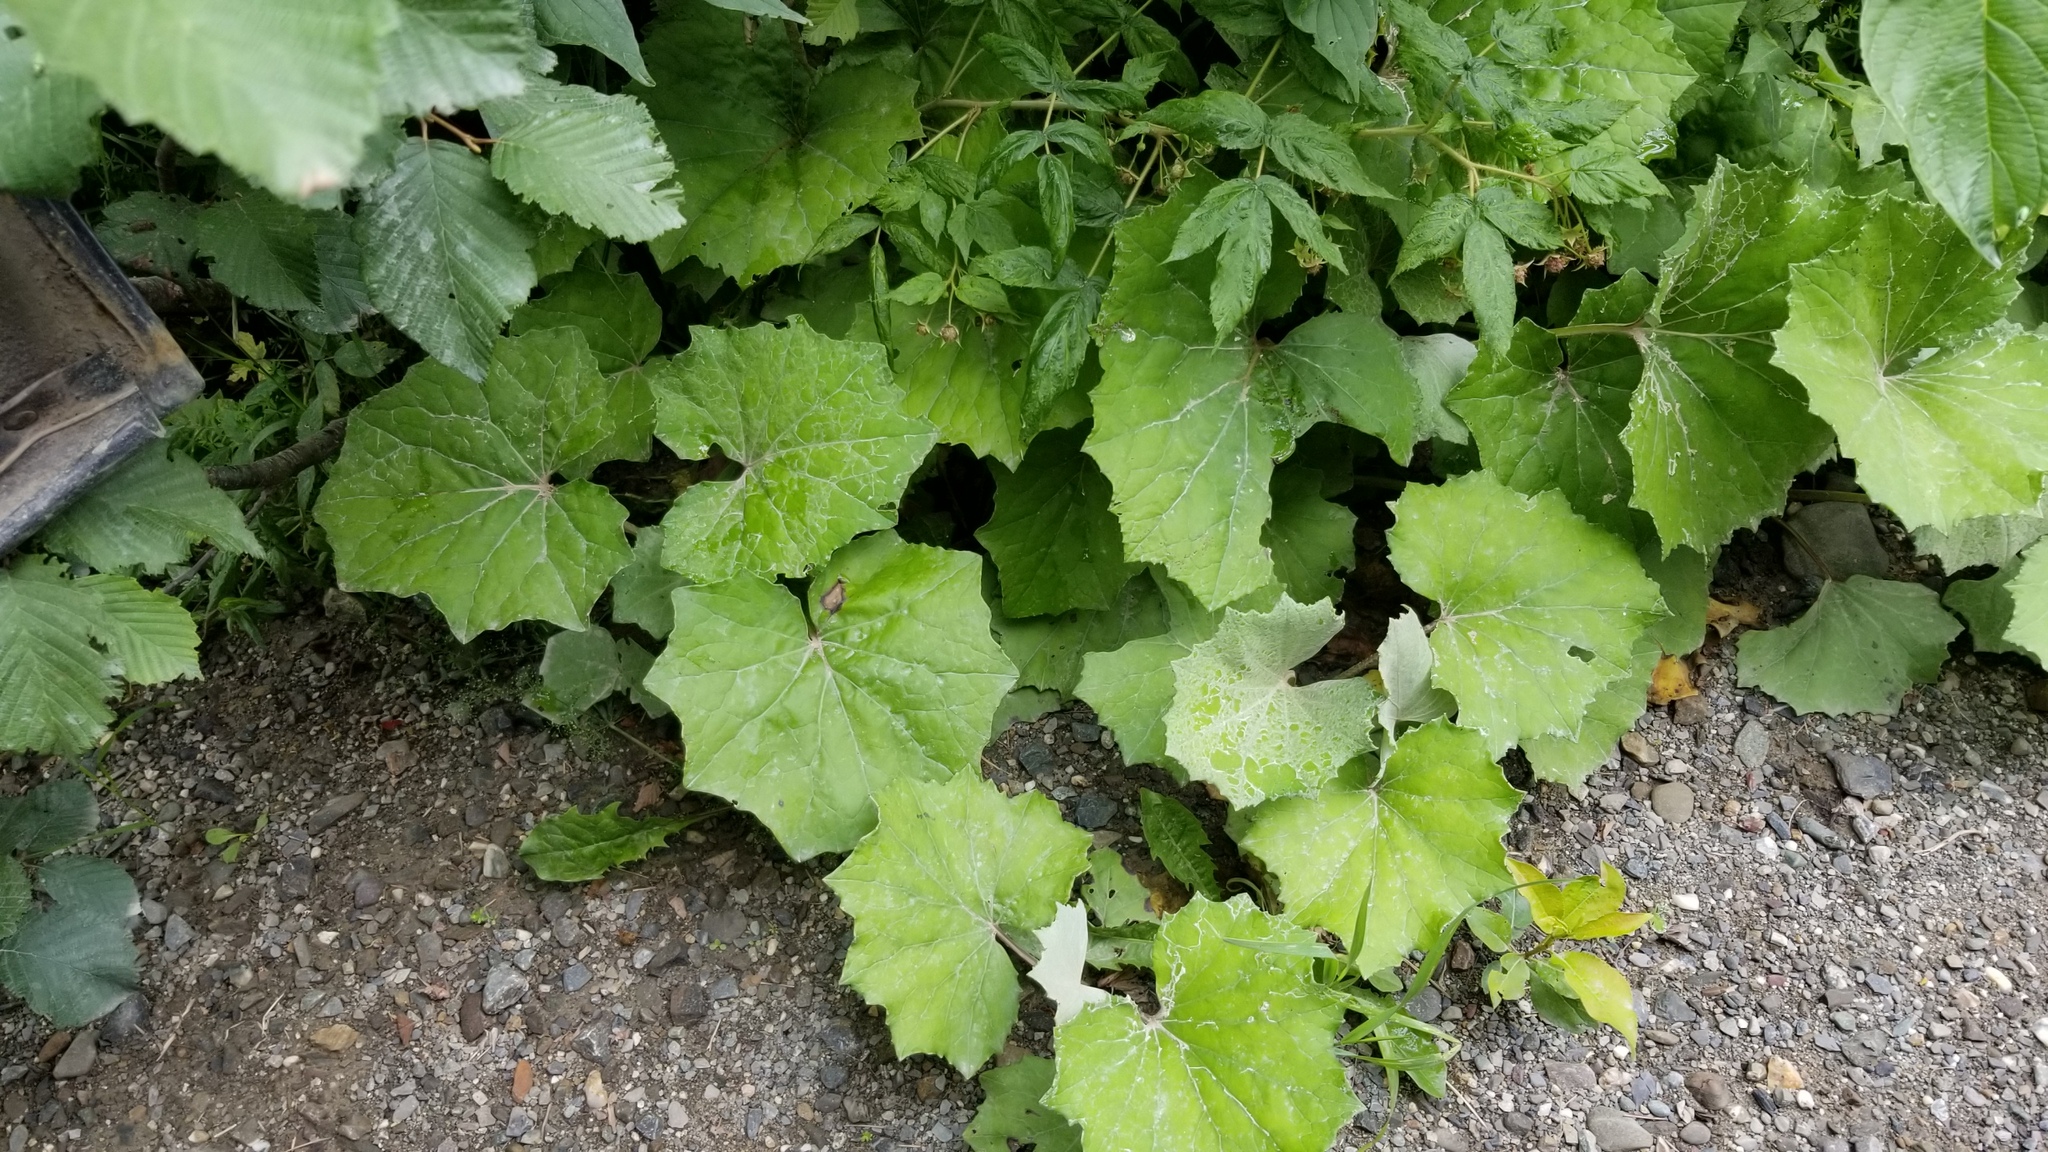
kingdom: Plantae
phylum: Tracheophyta
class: Magnoliopsida
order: Asterales
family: Asteraceae
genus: Tussilago
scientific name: Tussilago farfara
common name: Coltsfoot
